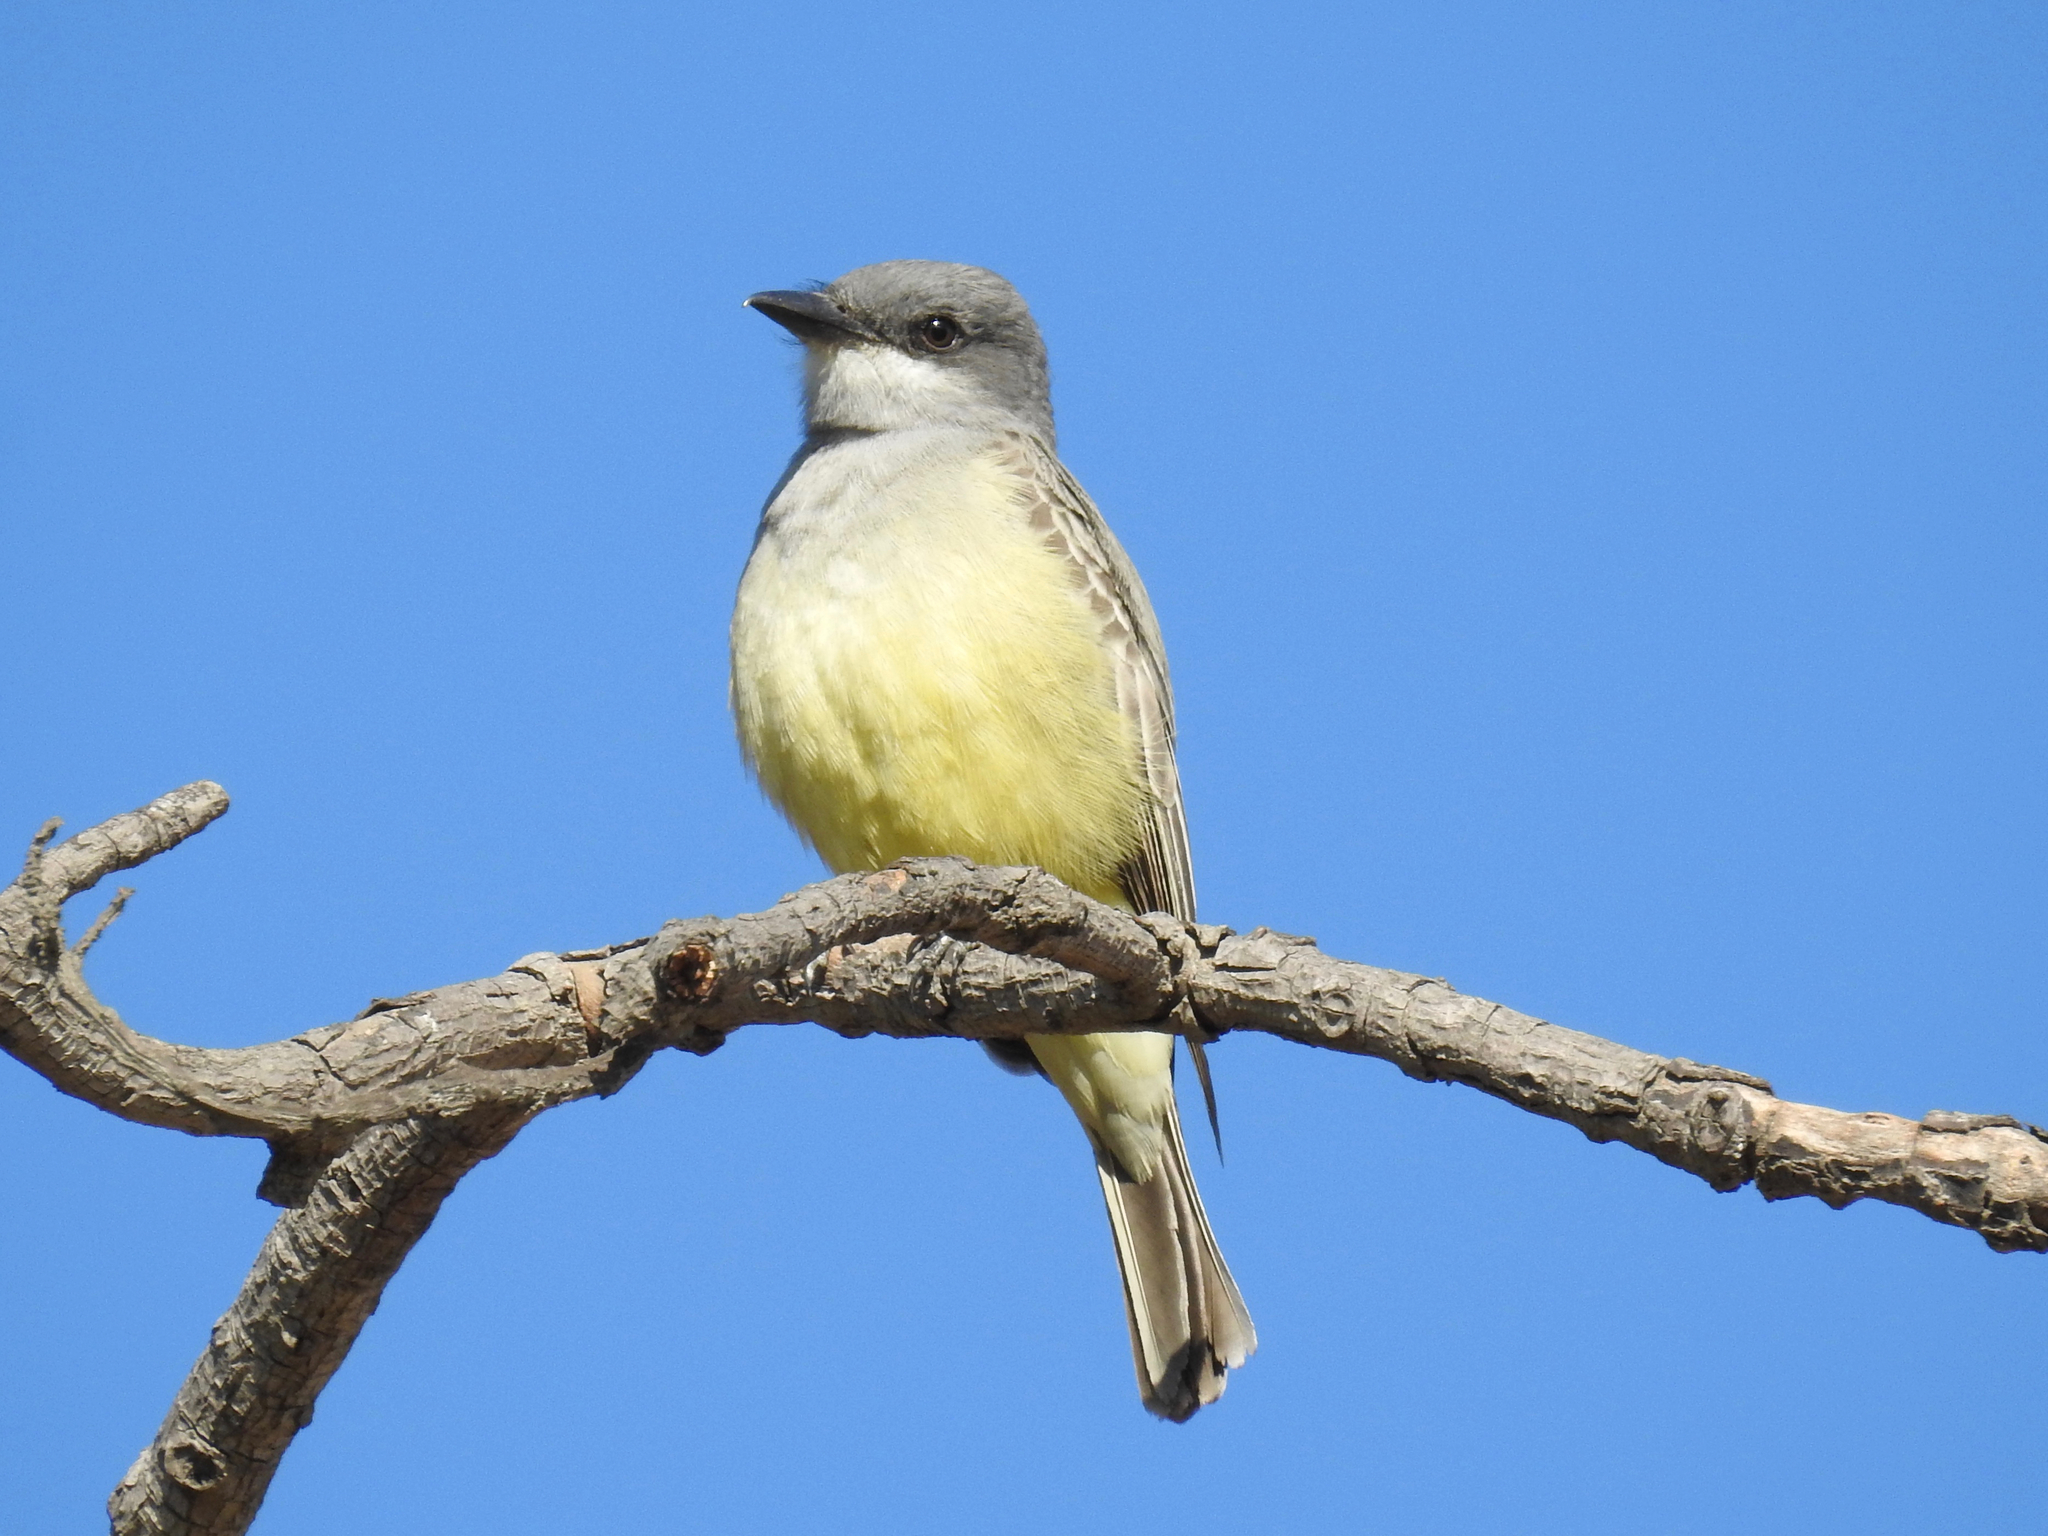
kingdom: Animalia
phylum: Chordata
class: Aves
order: Passeriformes
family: Tyrannidae
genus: Tyrannus
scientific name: Tyrannus vociferans
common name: Cassin's kingbird
